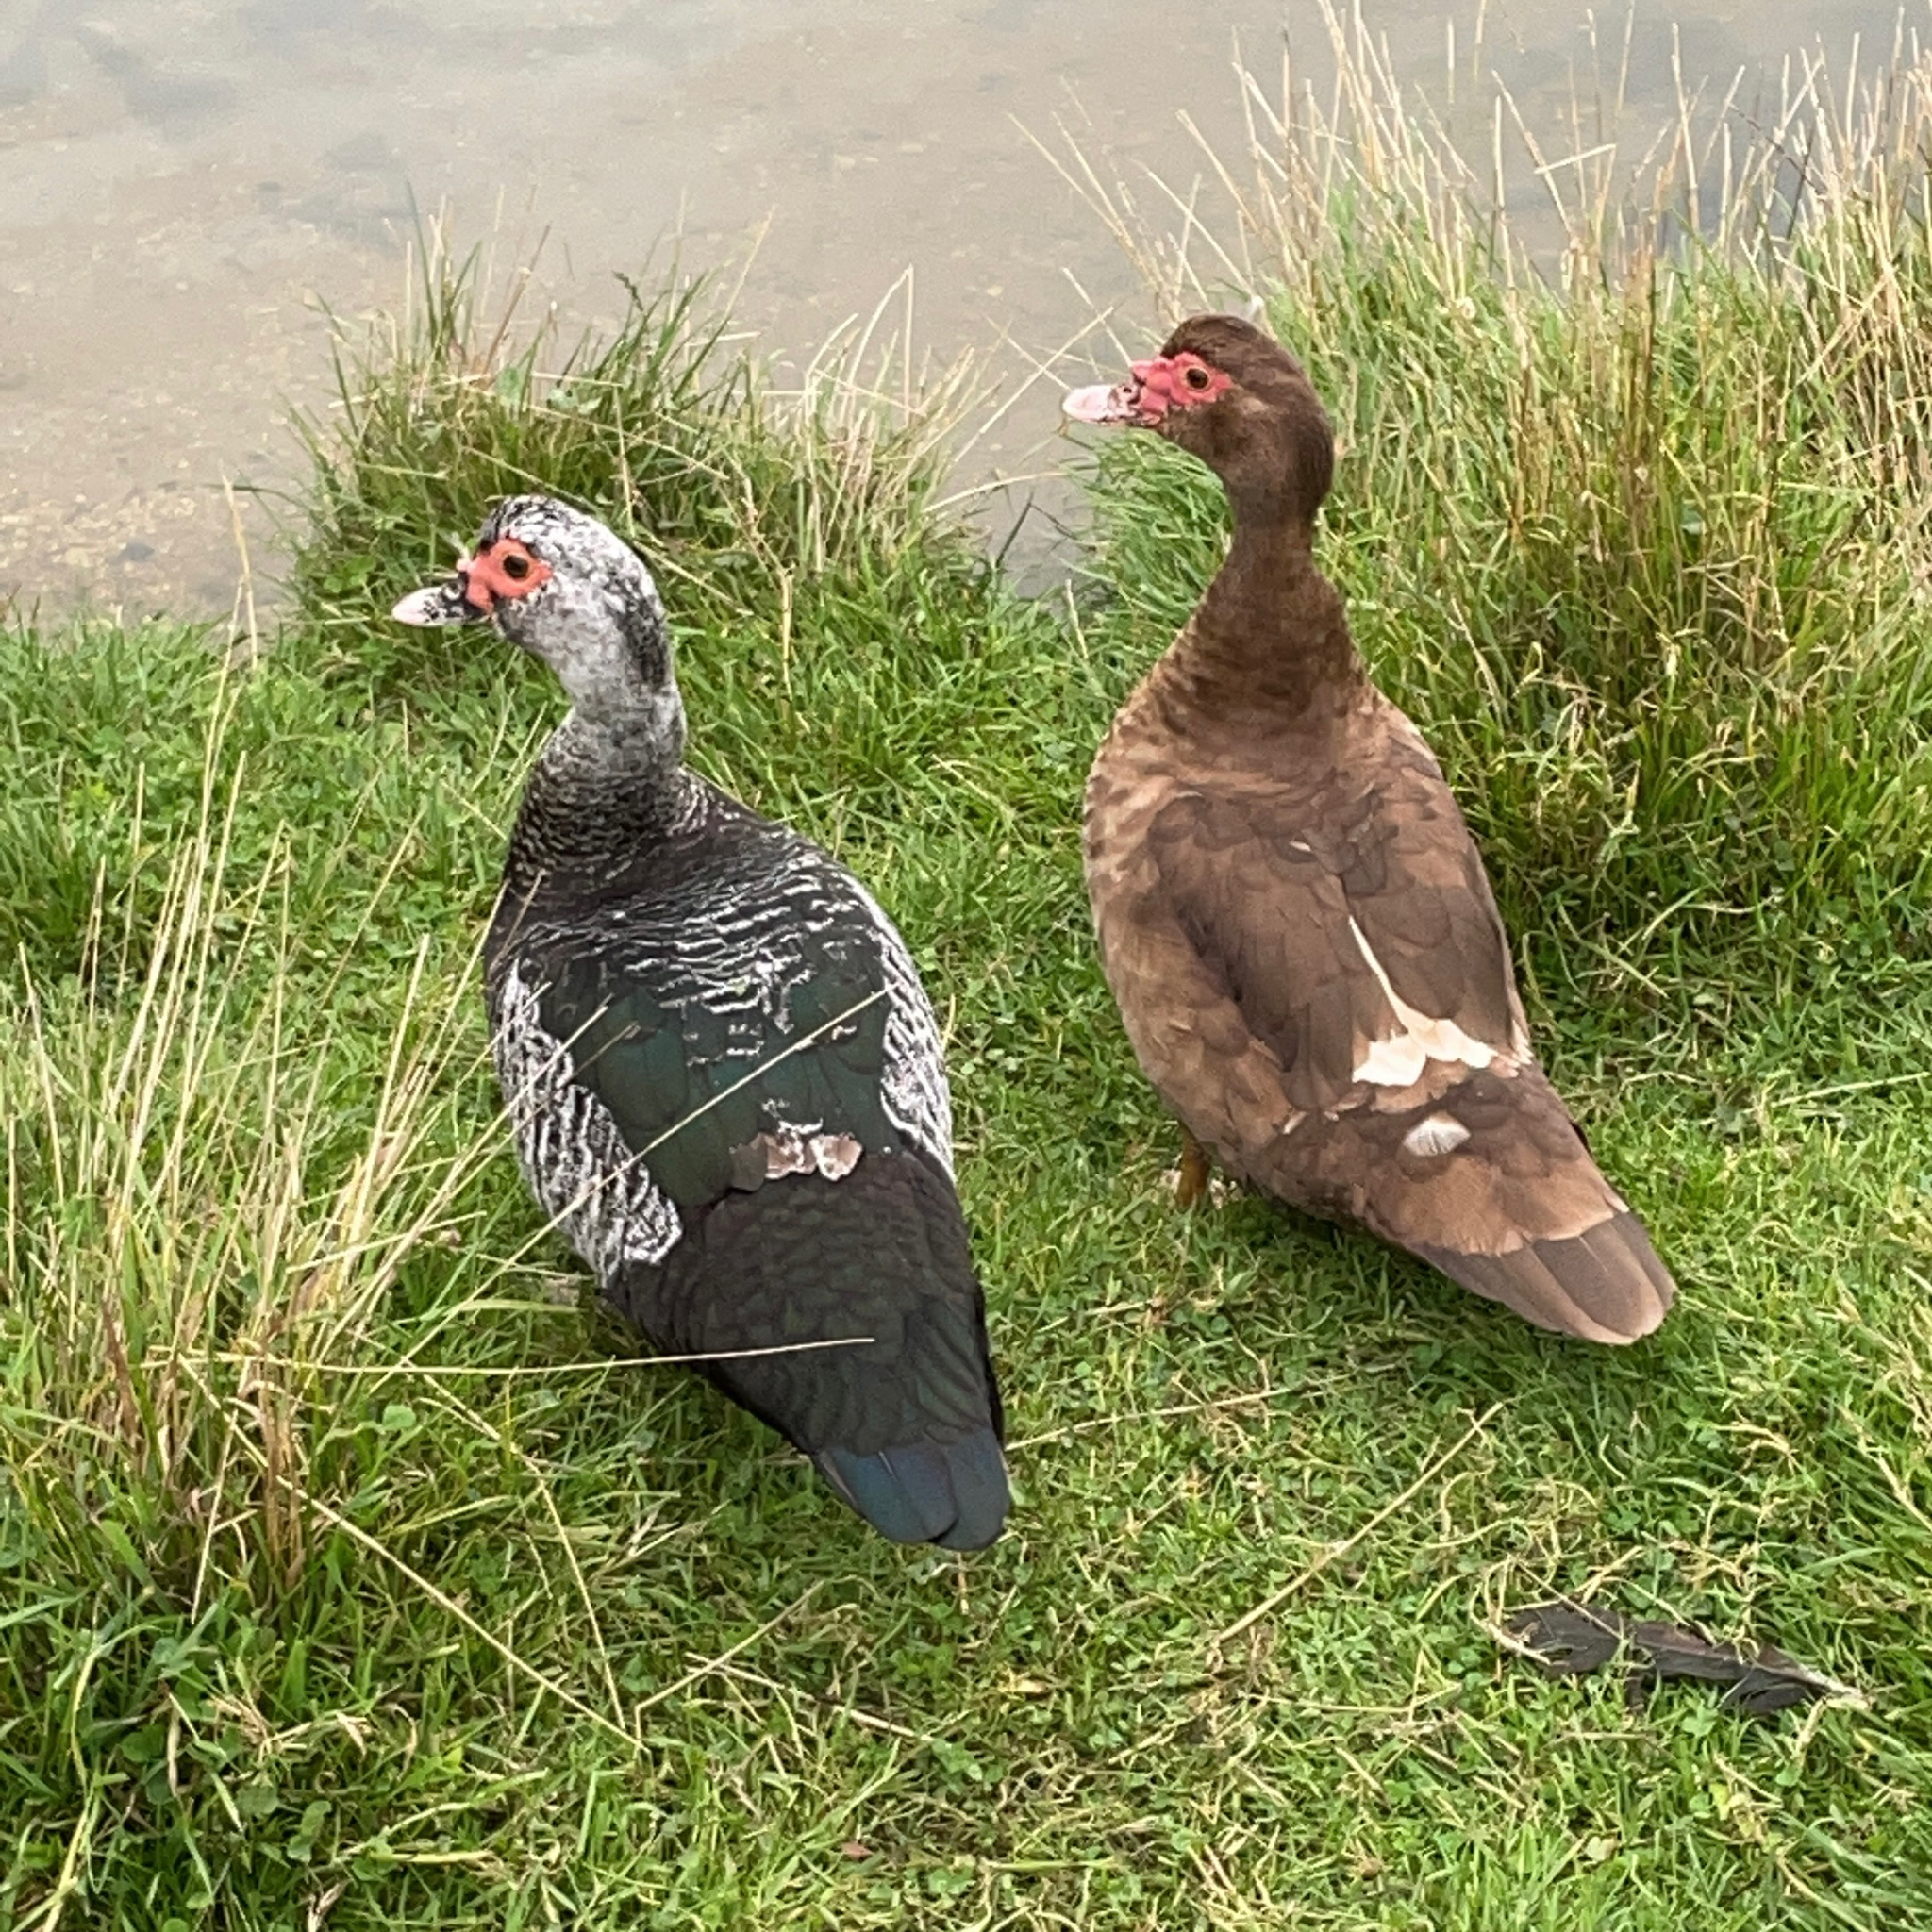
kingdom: Animalia
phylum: Chordata
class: Aves
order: Anseriformes
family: Anatidae
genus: Cairina
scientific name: Cairina moschata
